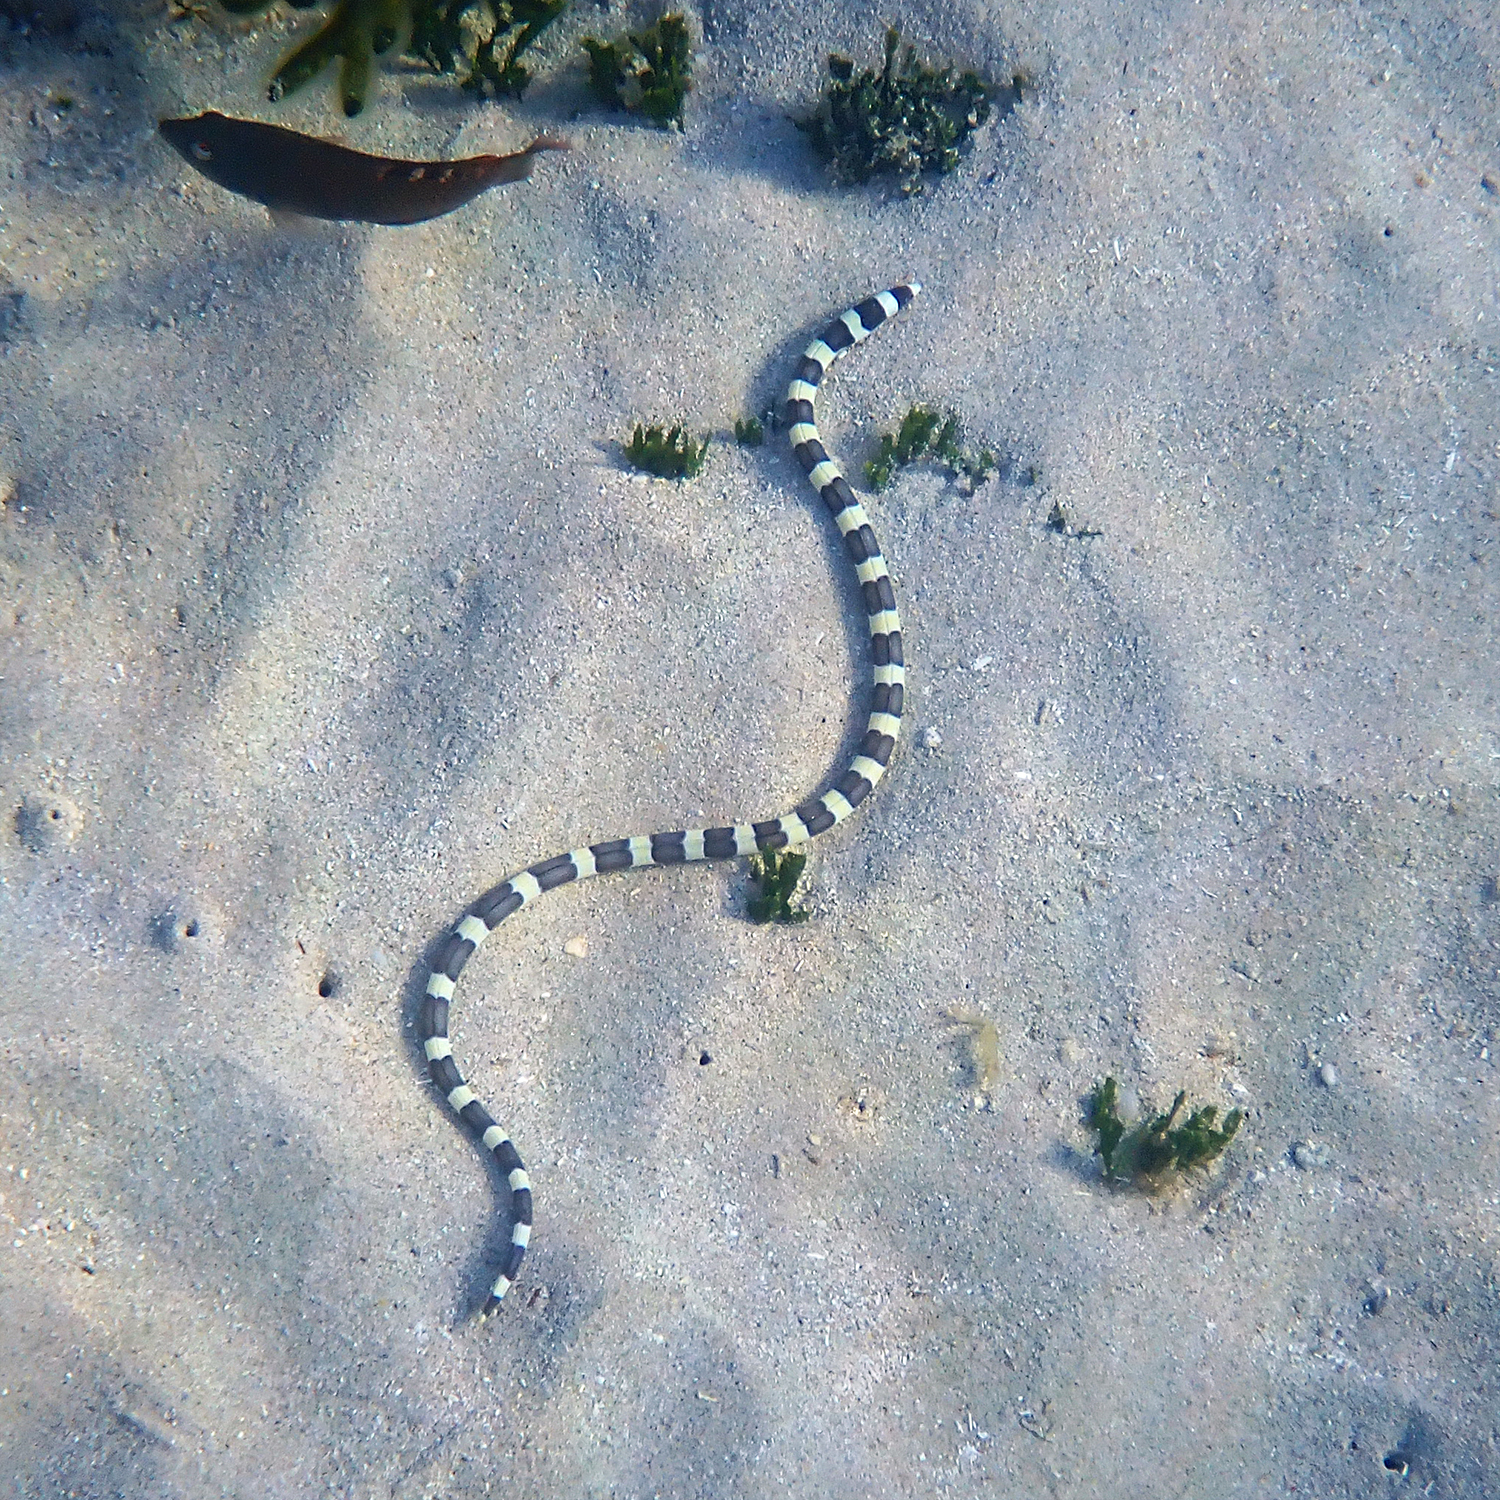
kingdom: Animalia
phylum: Chordata
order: Anguilliformes
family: Ophichthidae
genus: Leiuranus
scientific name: Leiuranus semicinctus
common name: Saddled snake eel
